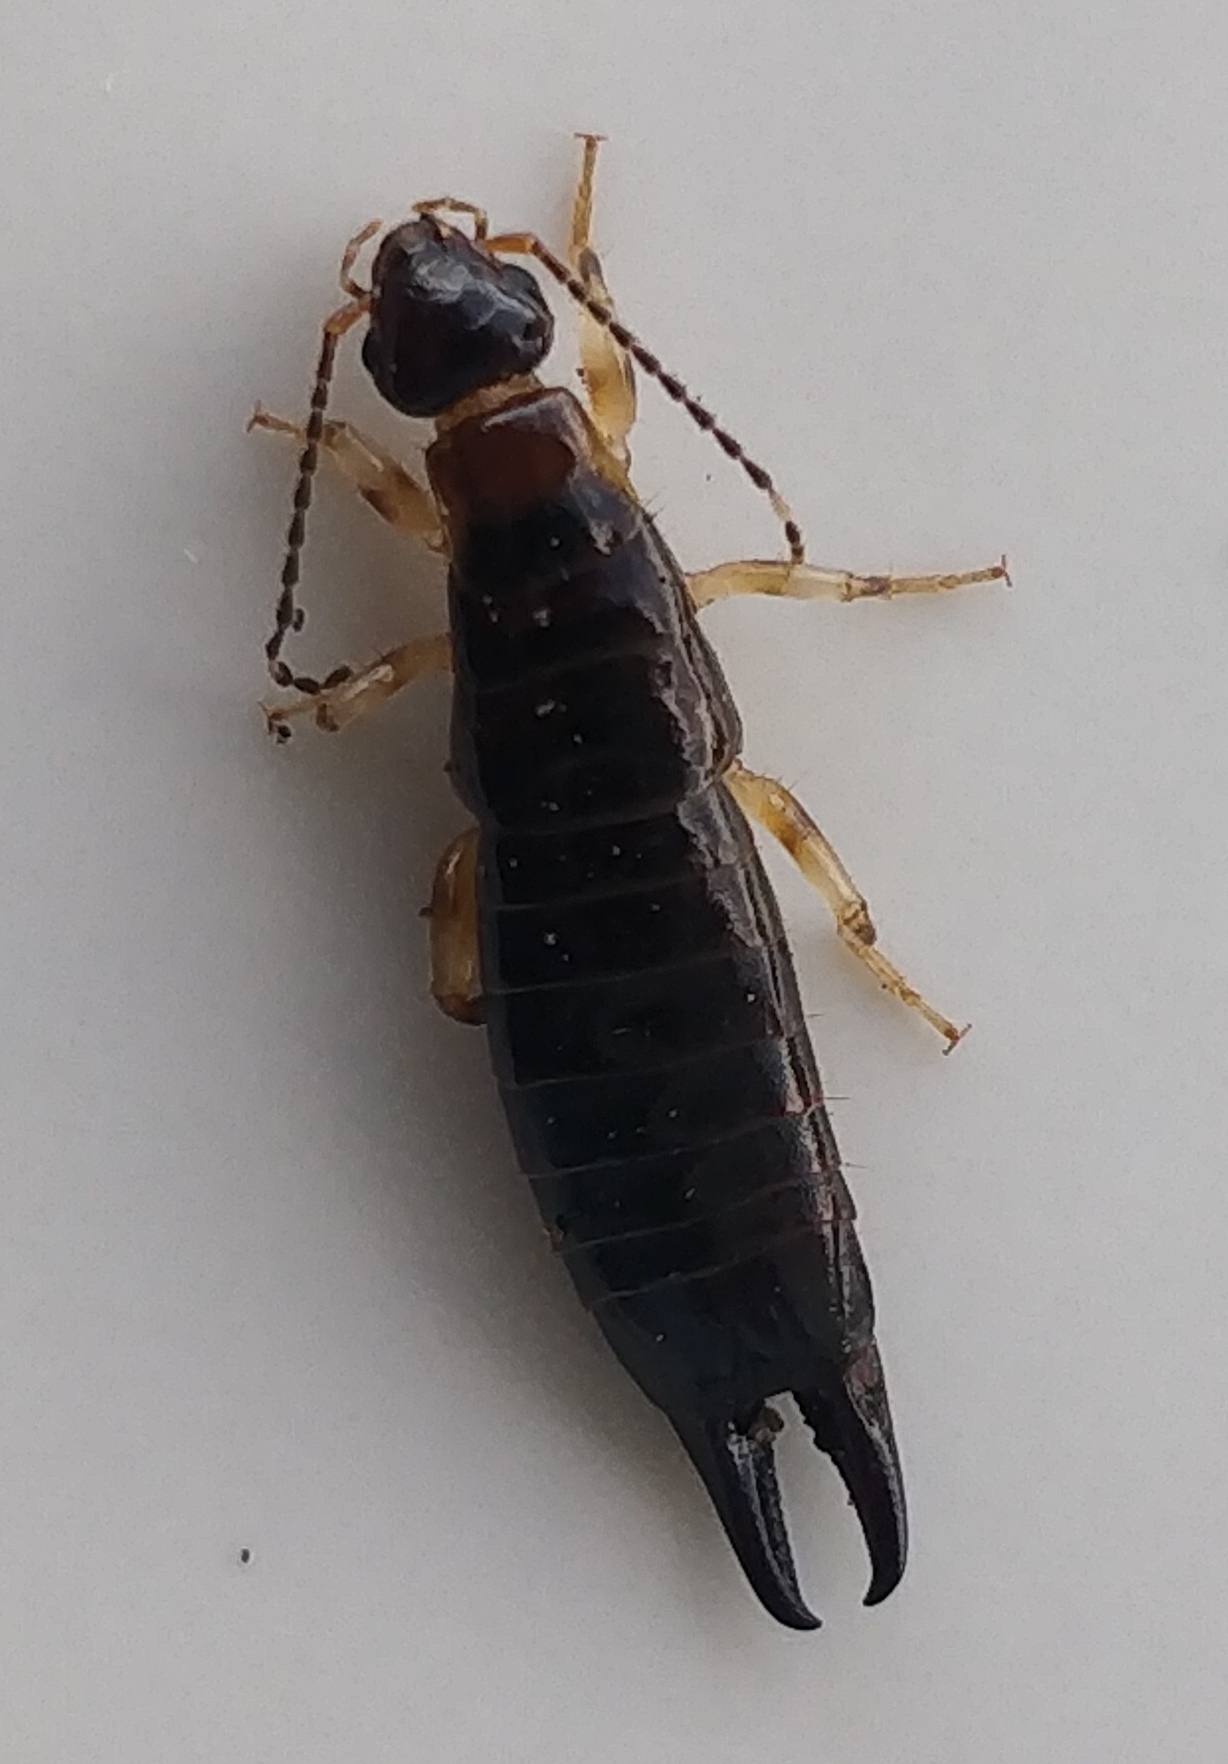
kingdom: Animalia
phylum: Arthropoda
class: Insecta
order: Dermaptera
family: Anisolabididae
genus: Euborellia
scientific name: Euborellia annulipes
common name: Ringlegged earwig
